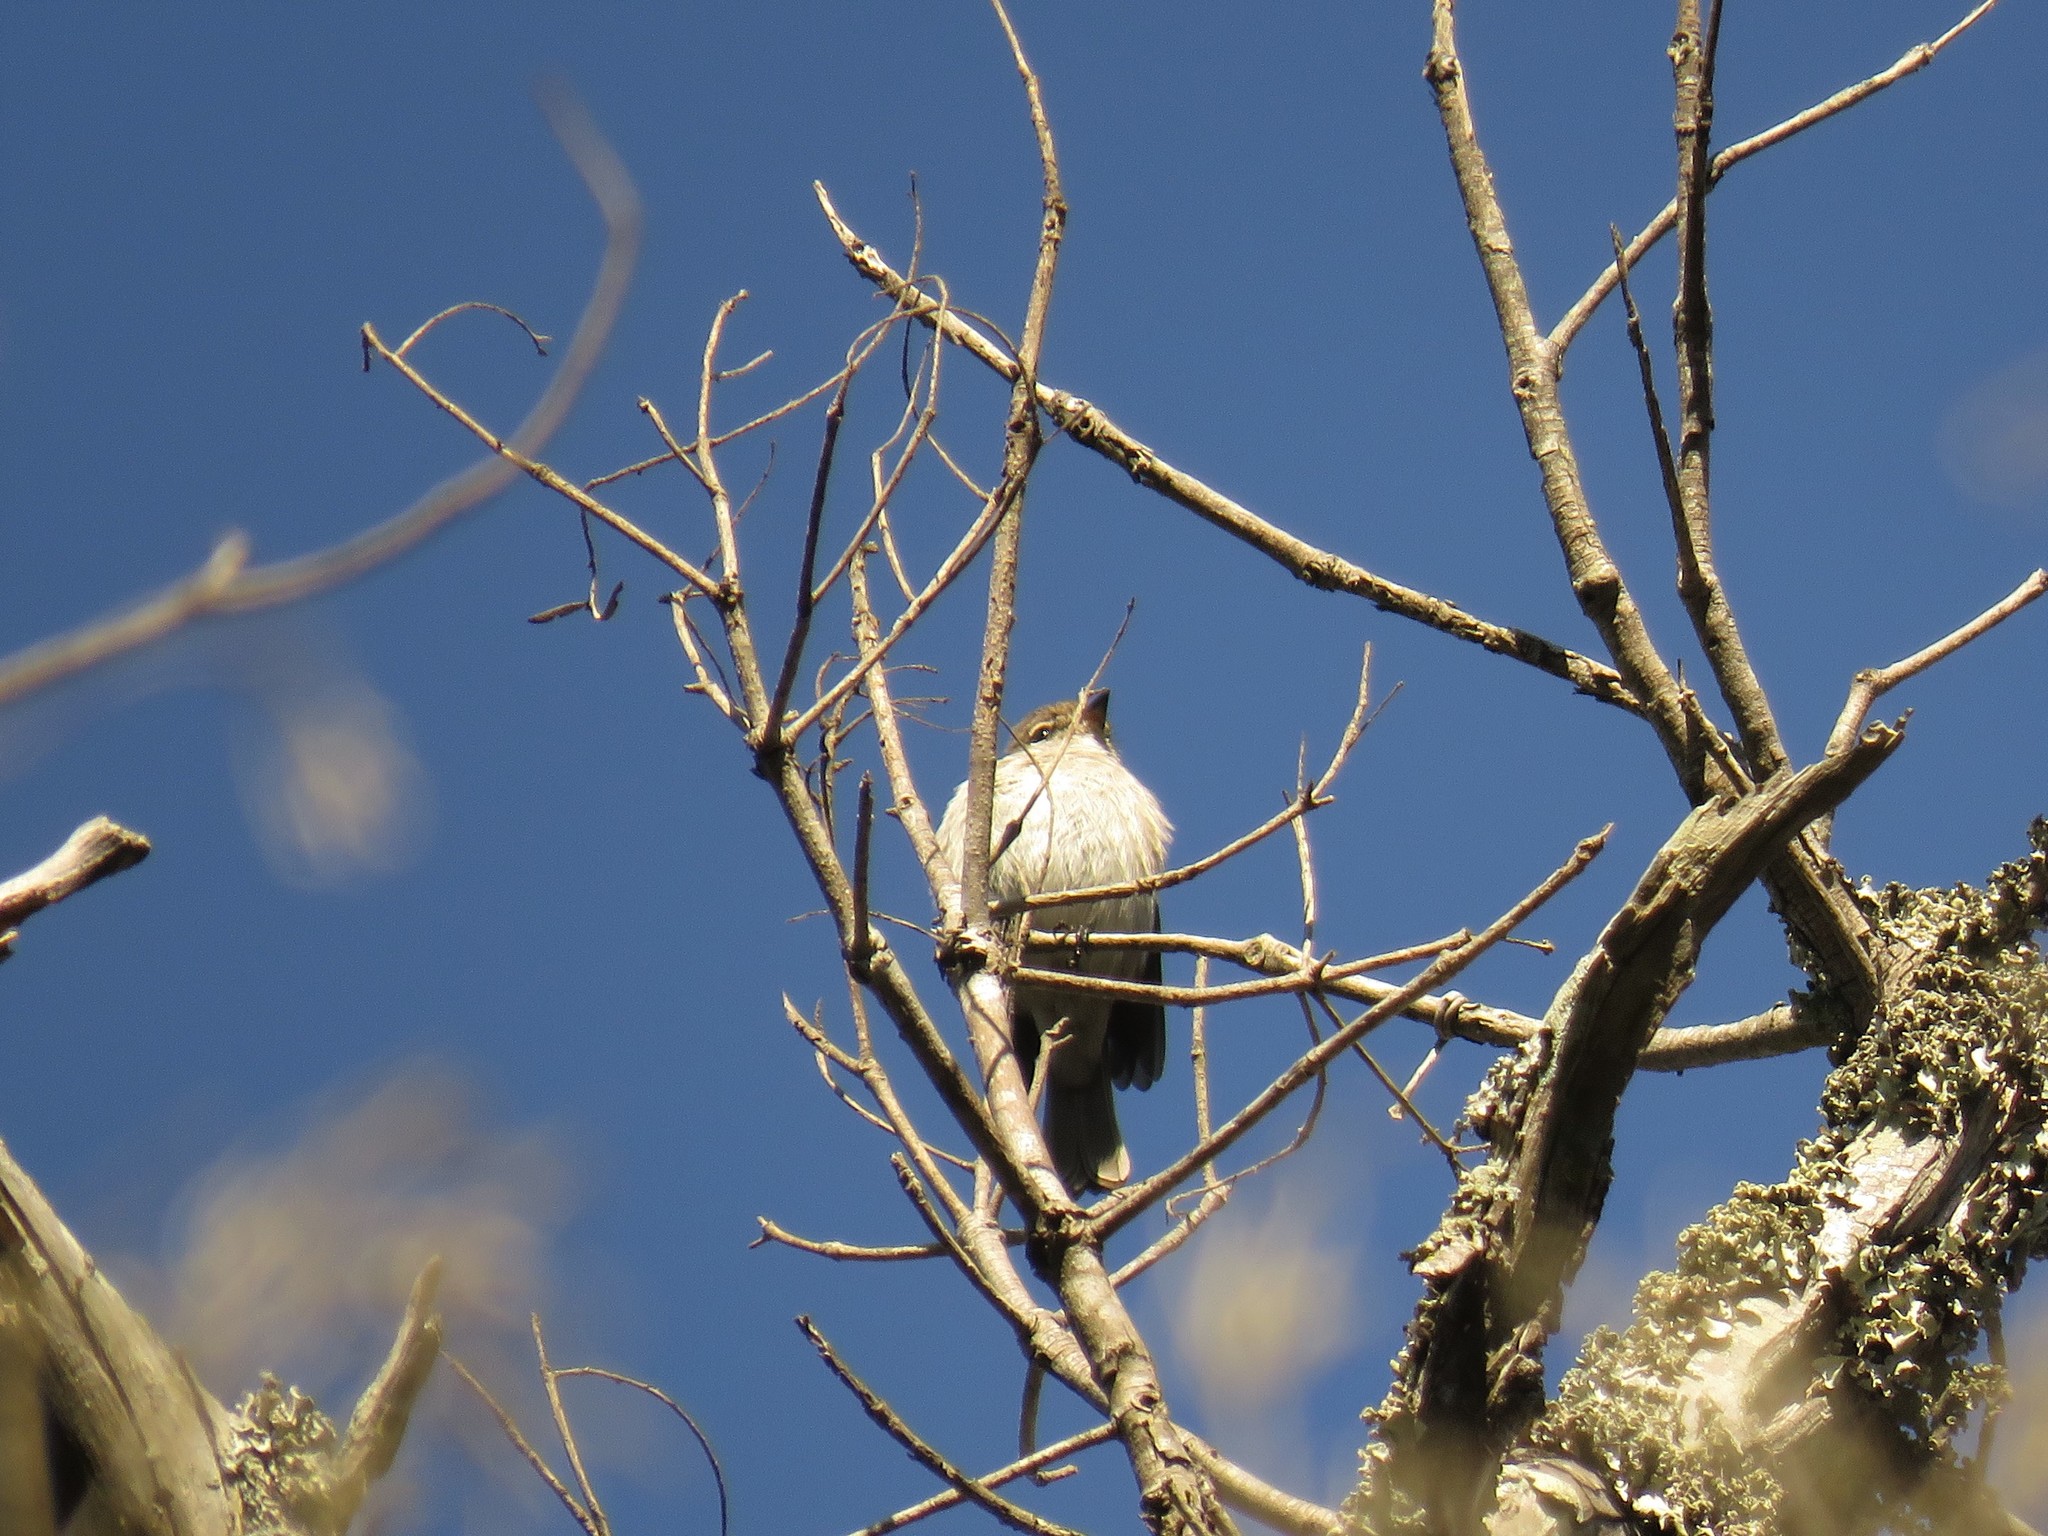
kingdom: Animalia
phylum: Chordata
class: Aves
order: Passeriformes
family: Muscicapidae
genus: Muscicapa
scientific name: Muscicapa adusta
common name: African dusky flycatcher
